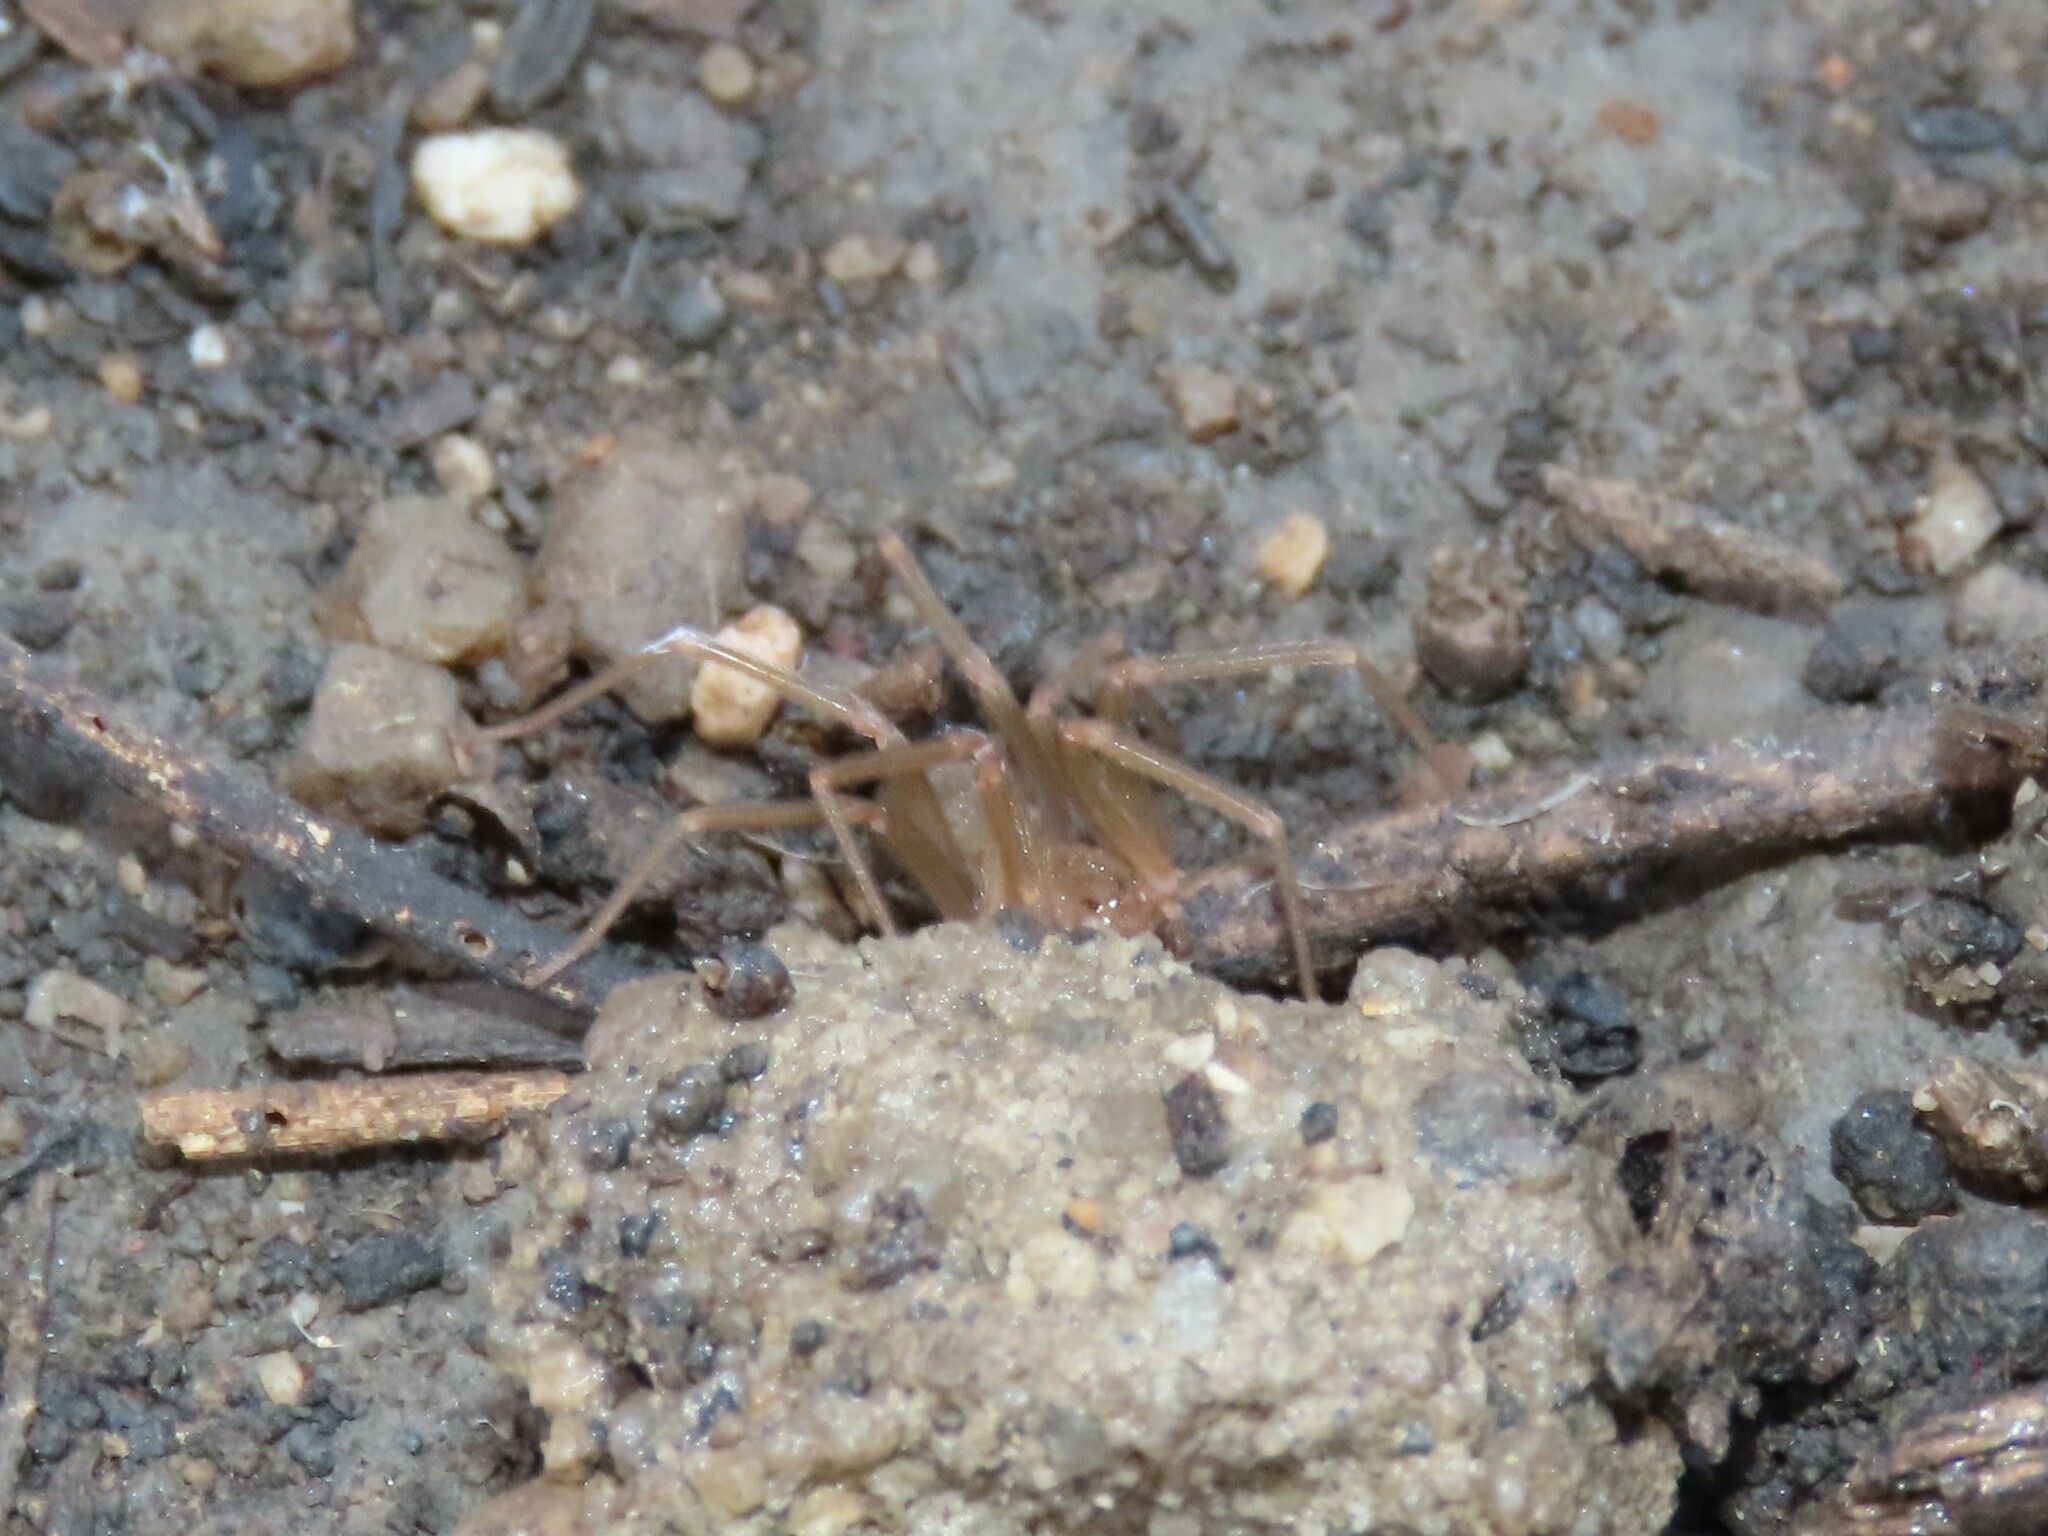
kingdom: Animalia
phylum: Arthropoda
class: Arachnida
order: Araneae
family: Sicariidae
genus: Loxosceles
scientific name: Loxosceles rufescens
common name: Mediterranean recluse spider
